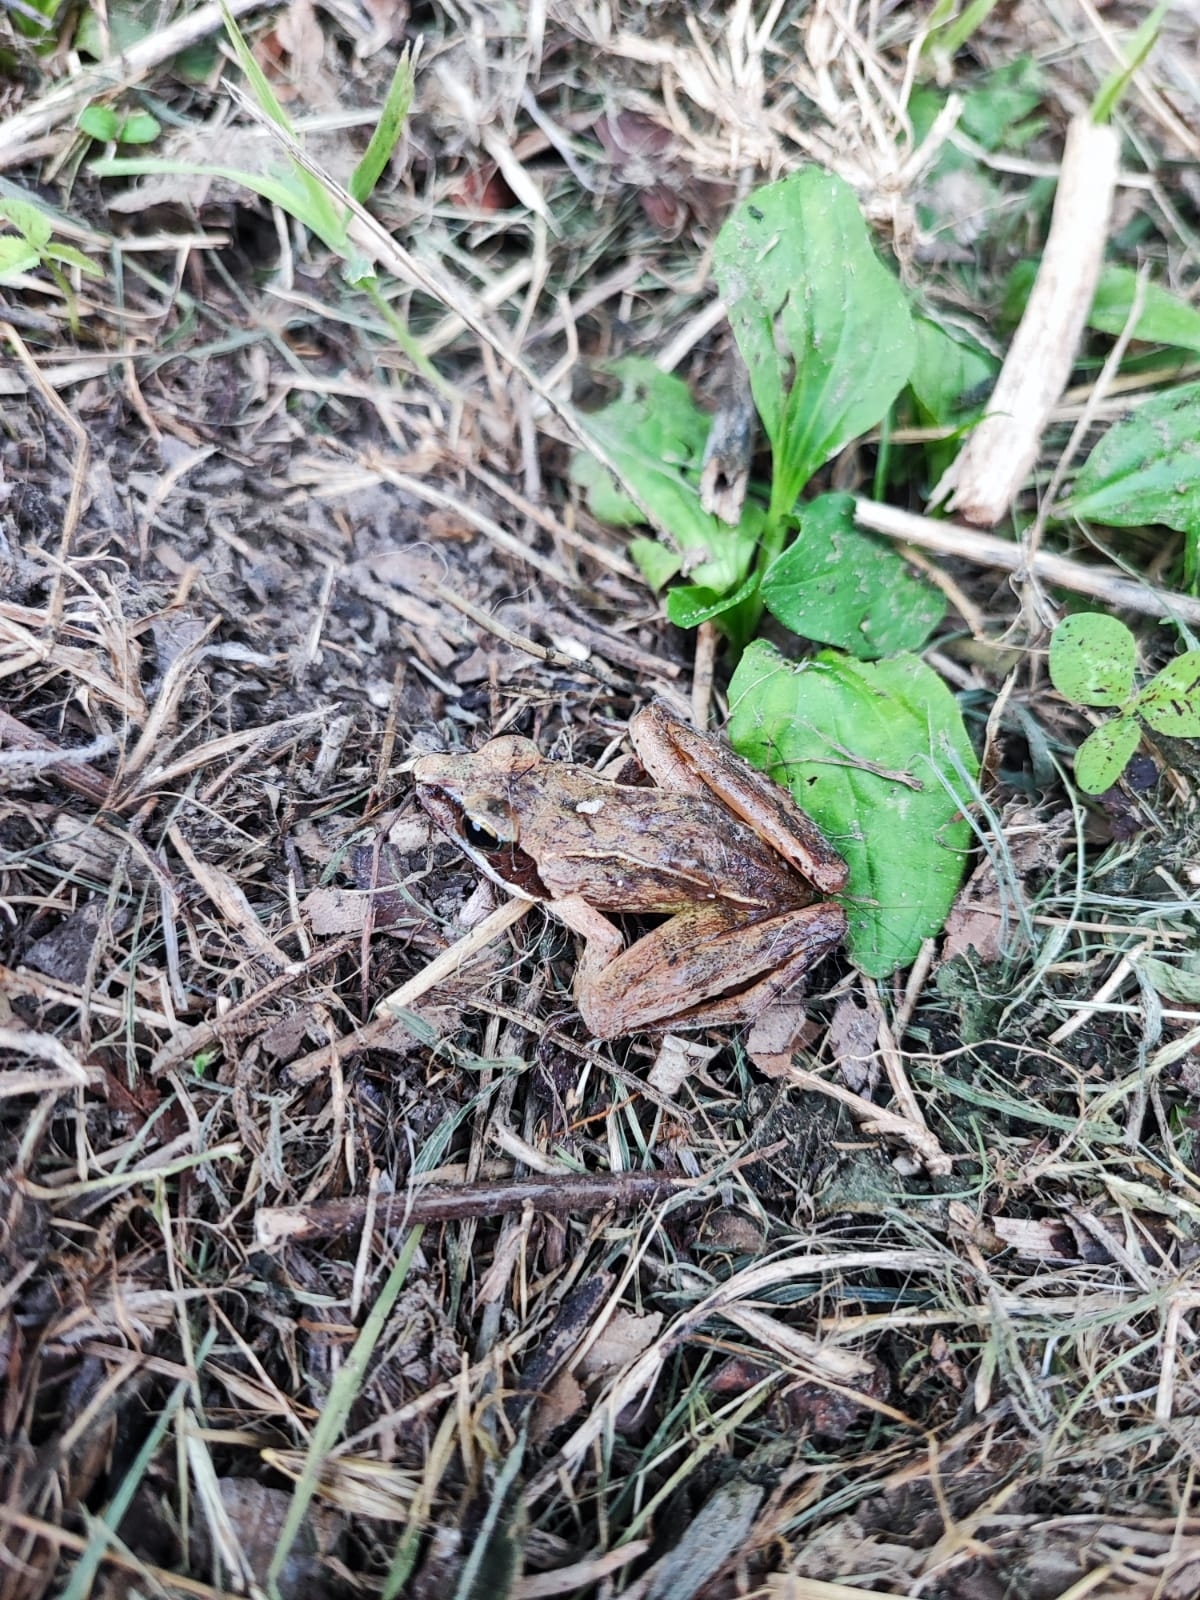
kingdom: Animalia
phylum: Chordata
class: Amphibia
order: Anura
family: Ranidae
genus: Rana
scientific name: Rana dalmatina
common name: Agile frog
